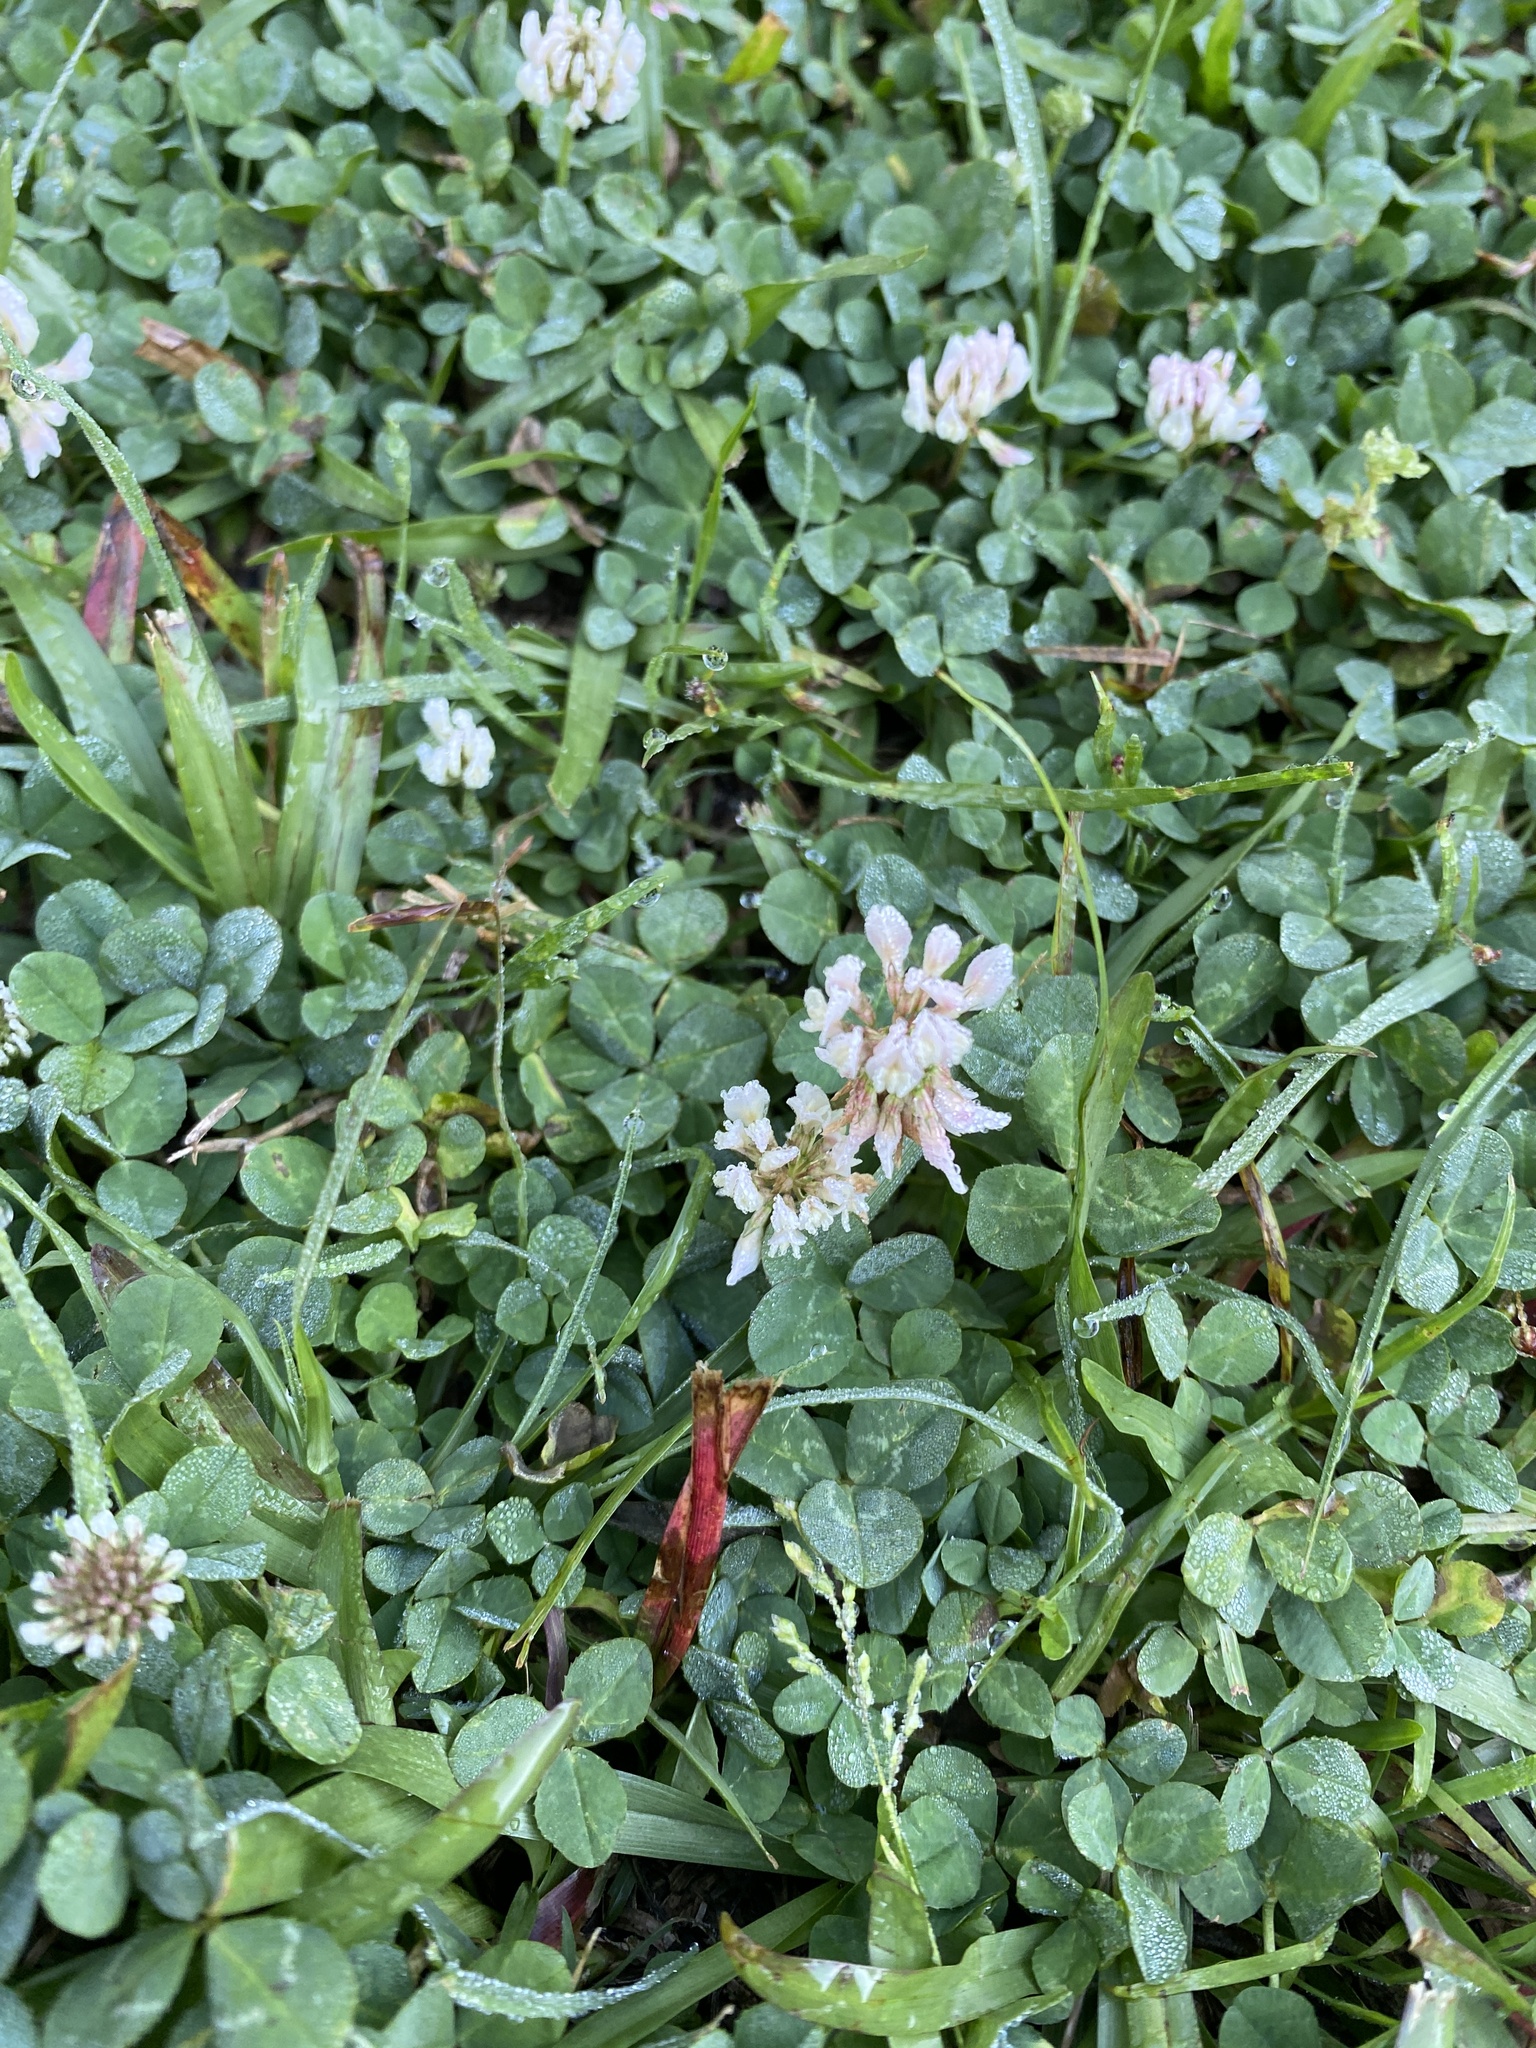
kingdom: Plantae
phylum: Tracheophyta
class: Magnoliopsida
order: Fabales
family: Fabaceae
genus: Trifolium
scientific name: Trifolium repens
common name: White clover
